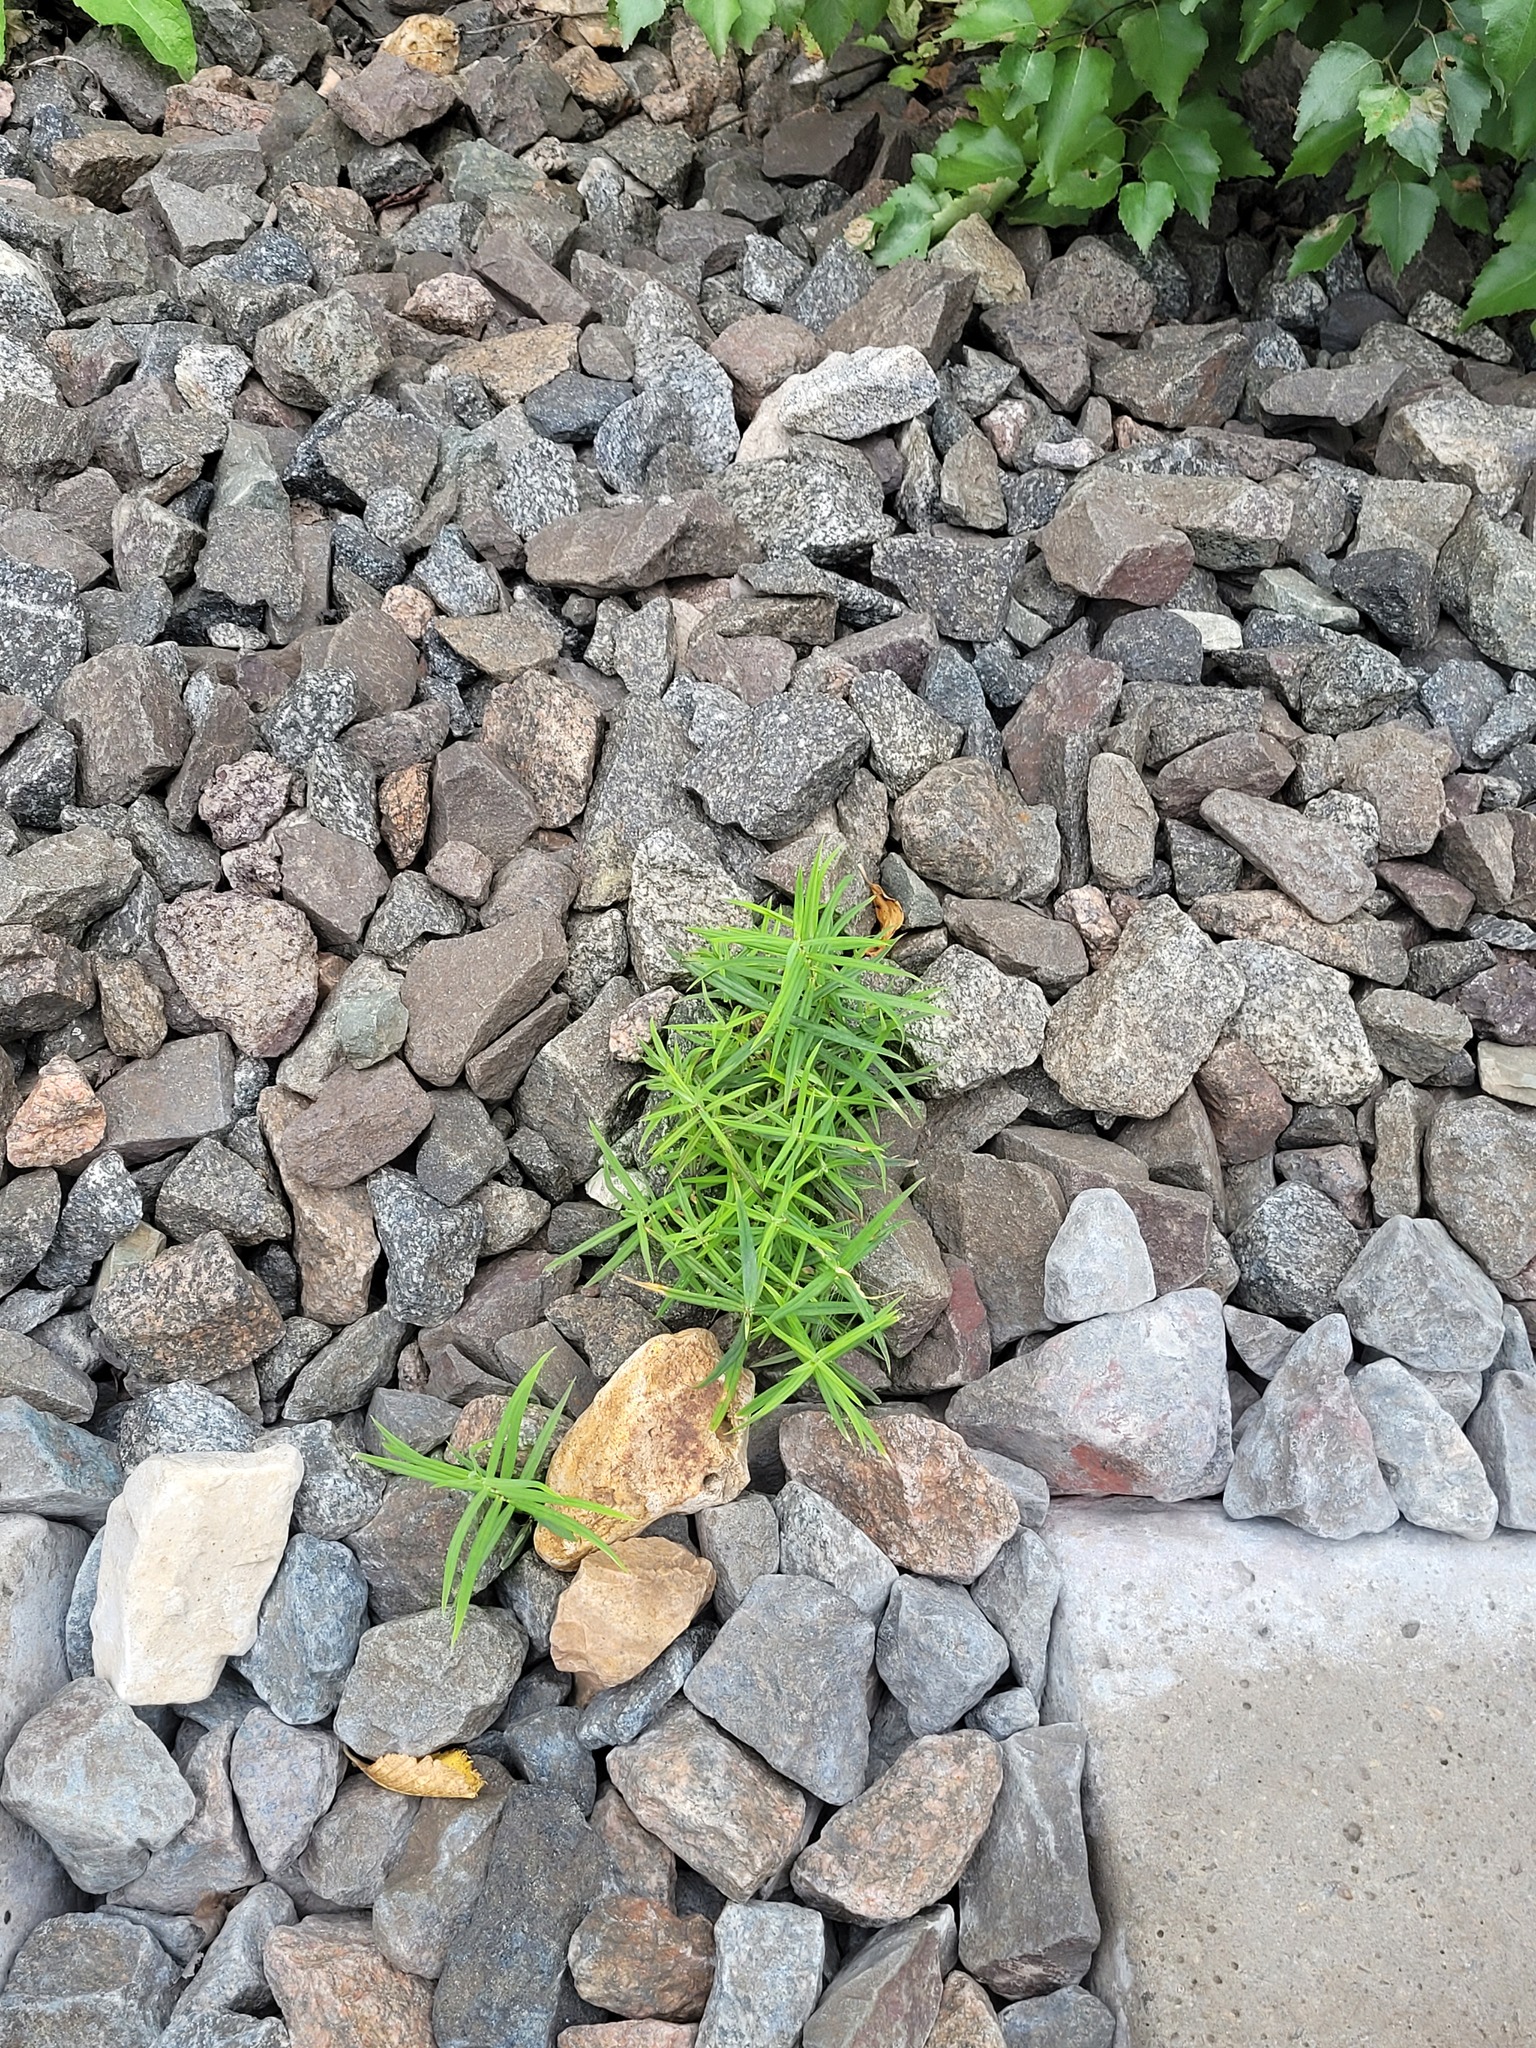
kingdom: Plantae
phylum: Tracheophyta
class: Magnoliopsida
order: Caryophyllales
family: Caryophyllaceae
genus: Rabelera
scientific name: Rabelera holostea
